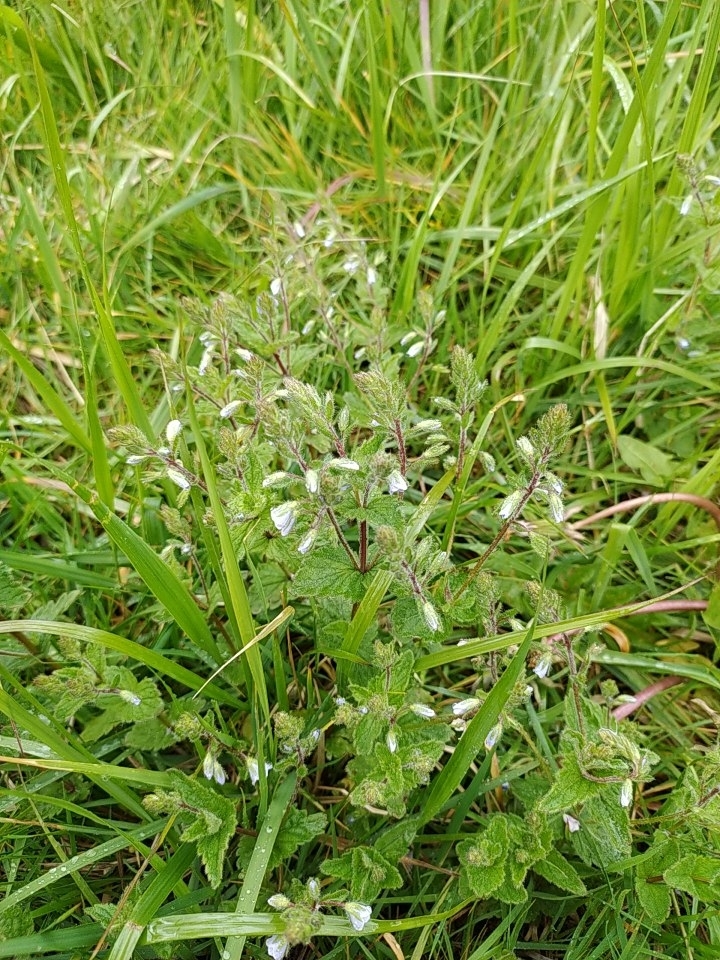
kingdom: Plantae
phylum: Tracheophyta
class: Magnoliopsida
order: Lamiales
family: Plantaginaceae
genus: Veronica
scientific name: Veronica chamaedrys
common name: Germander speedwell
